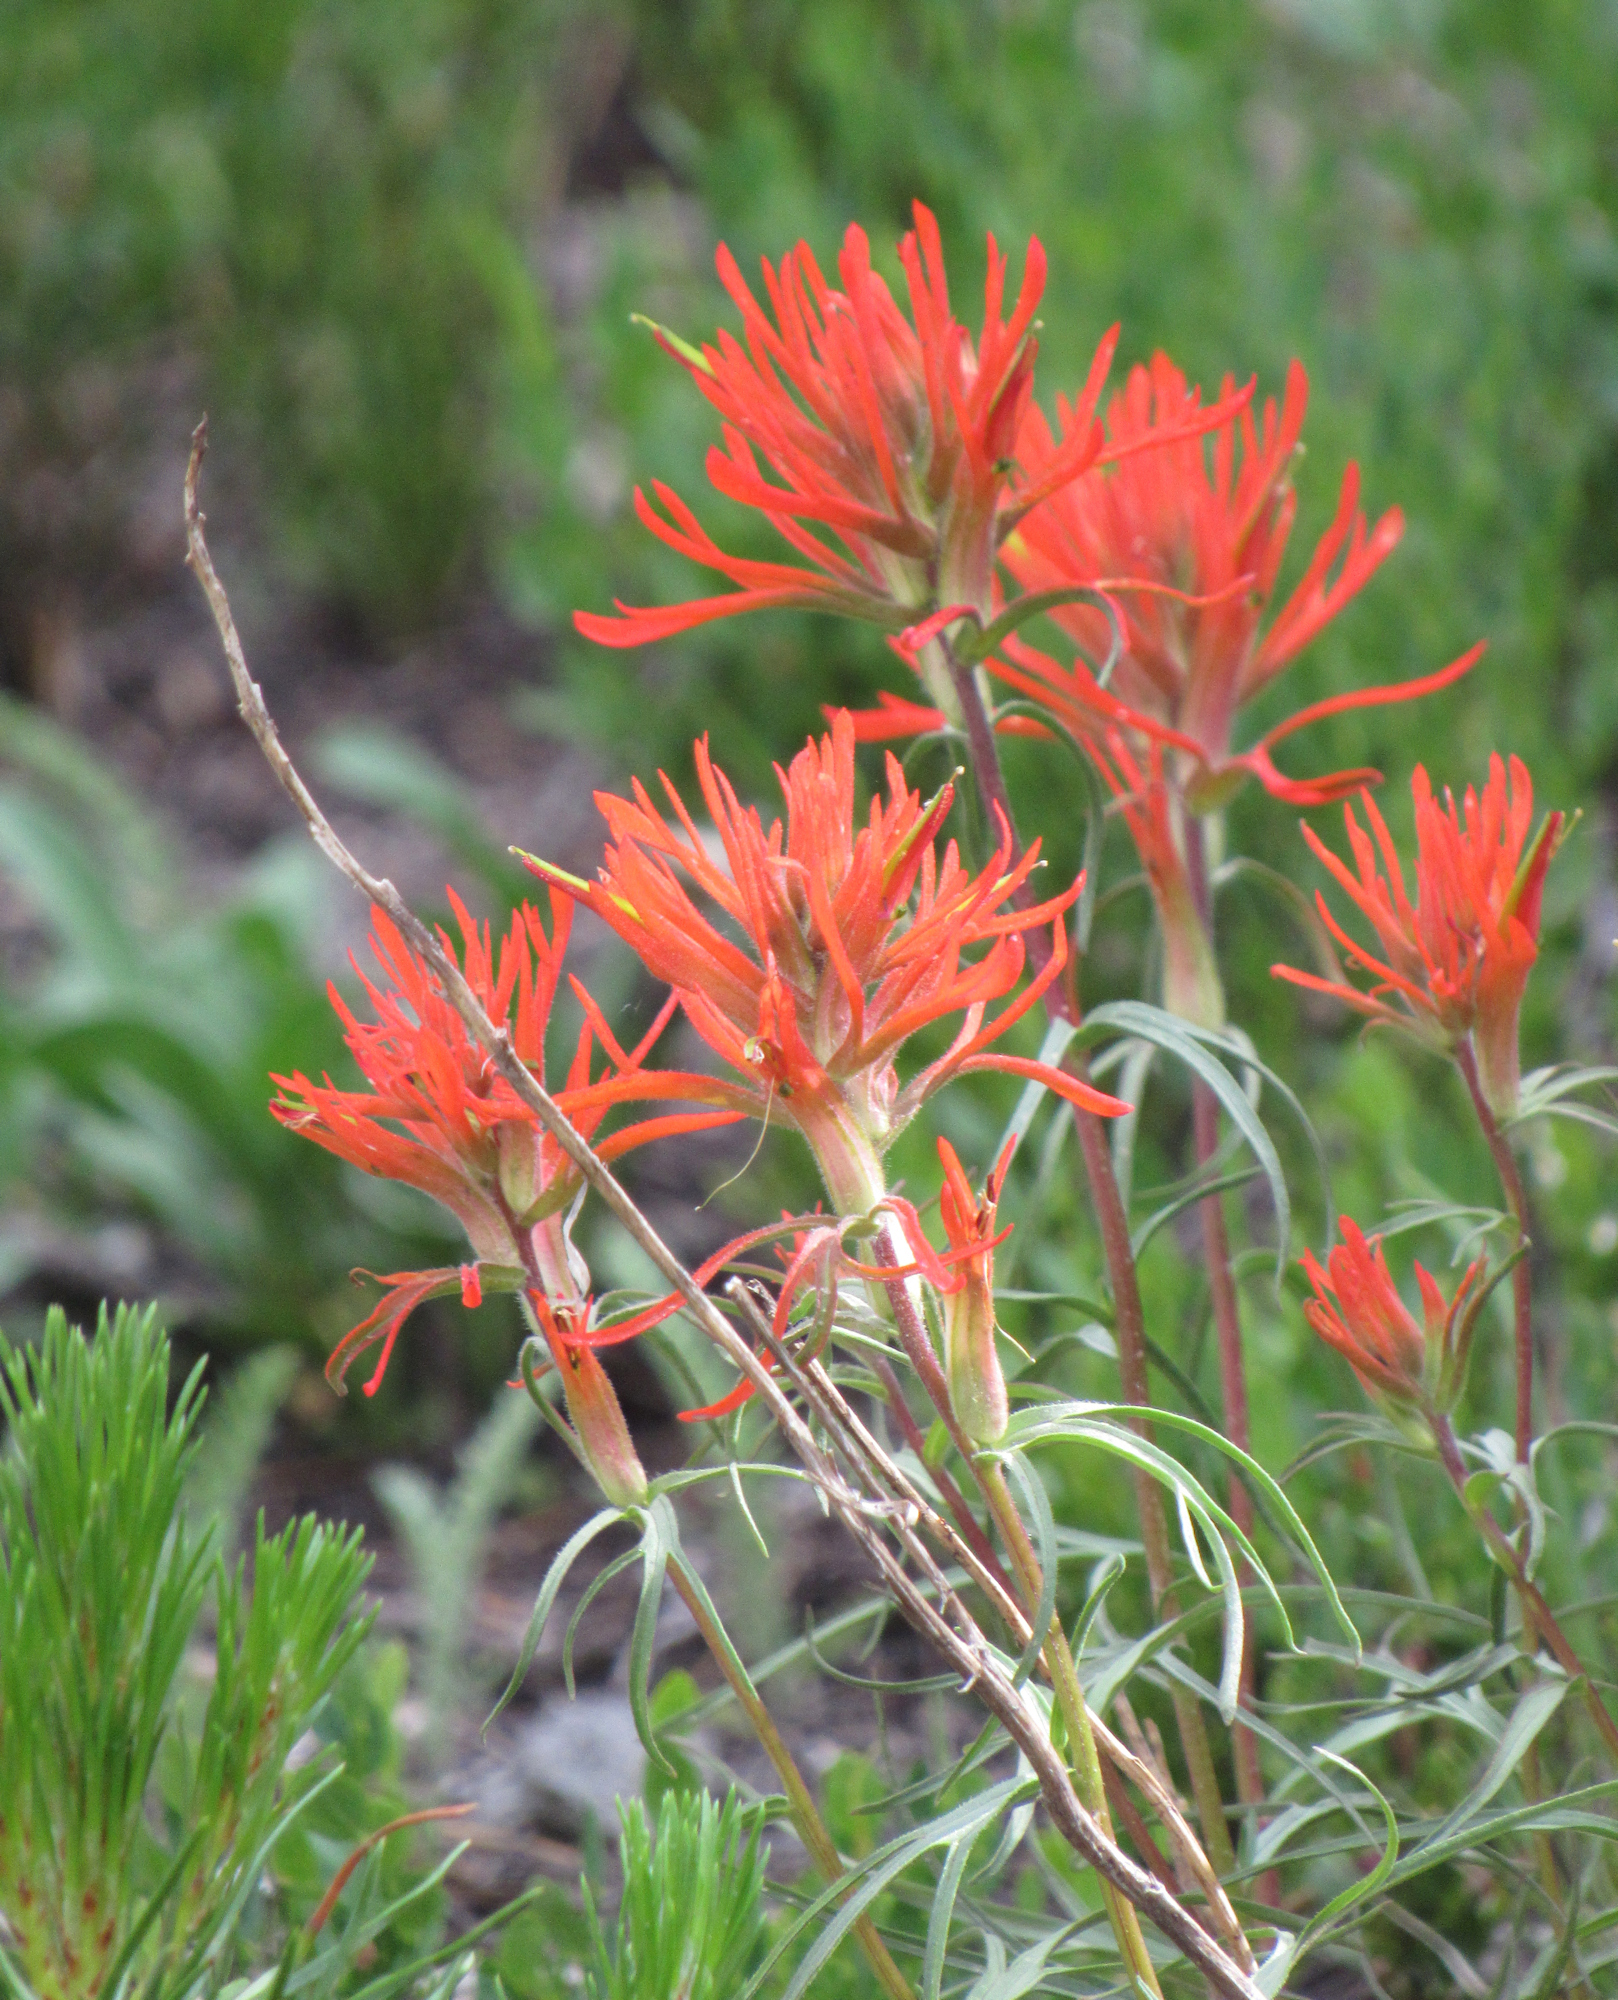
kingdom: Plantae
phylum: Tracheophyta
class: Magnoliopsida
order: Lamiales
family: Orobanchaceae
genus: Castilleja
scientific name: Castilleja crista-galli
